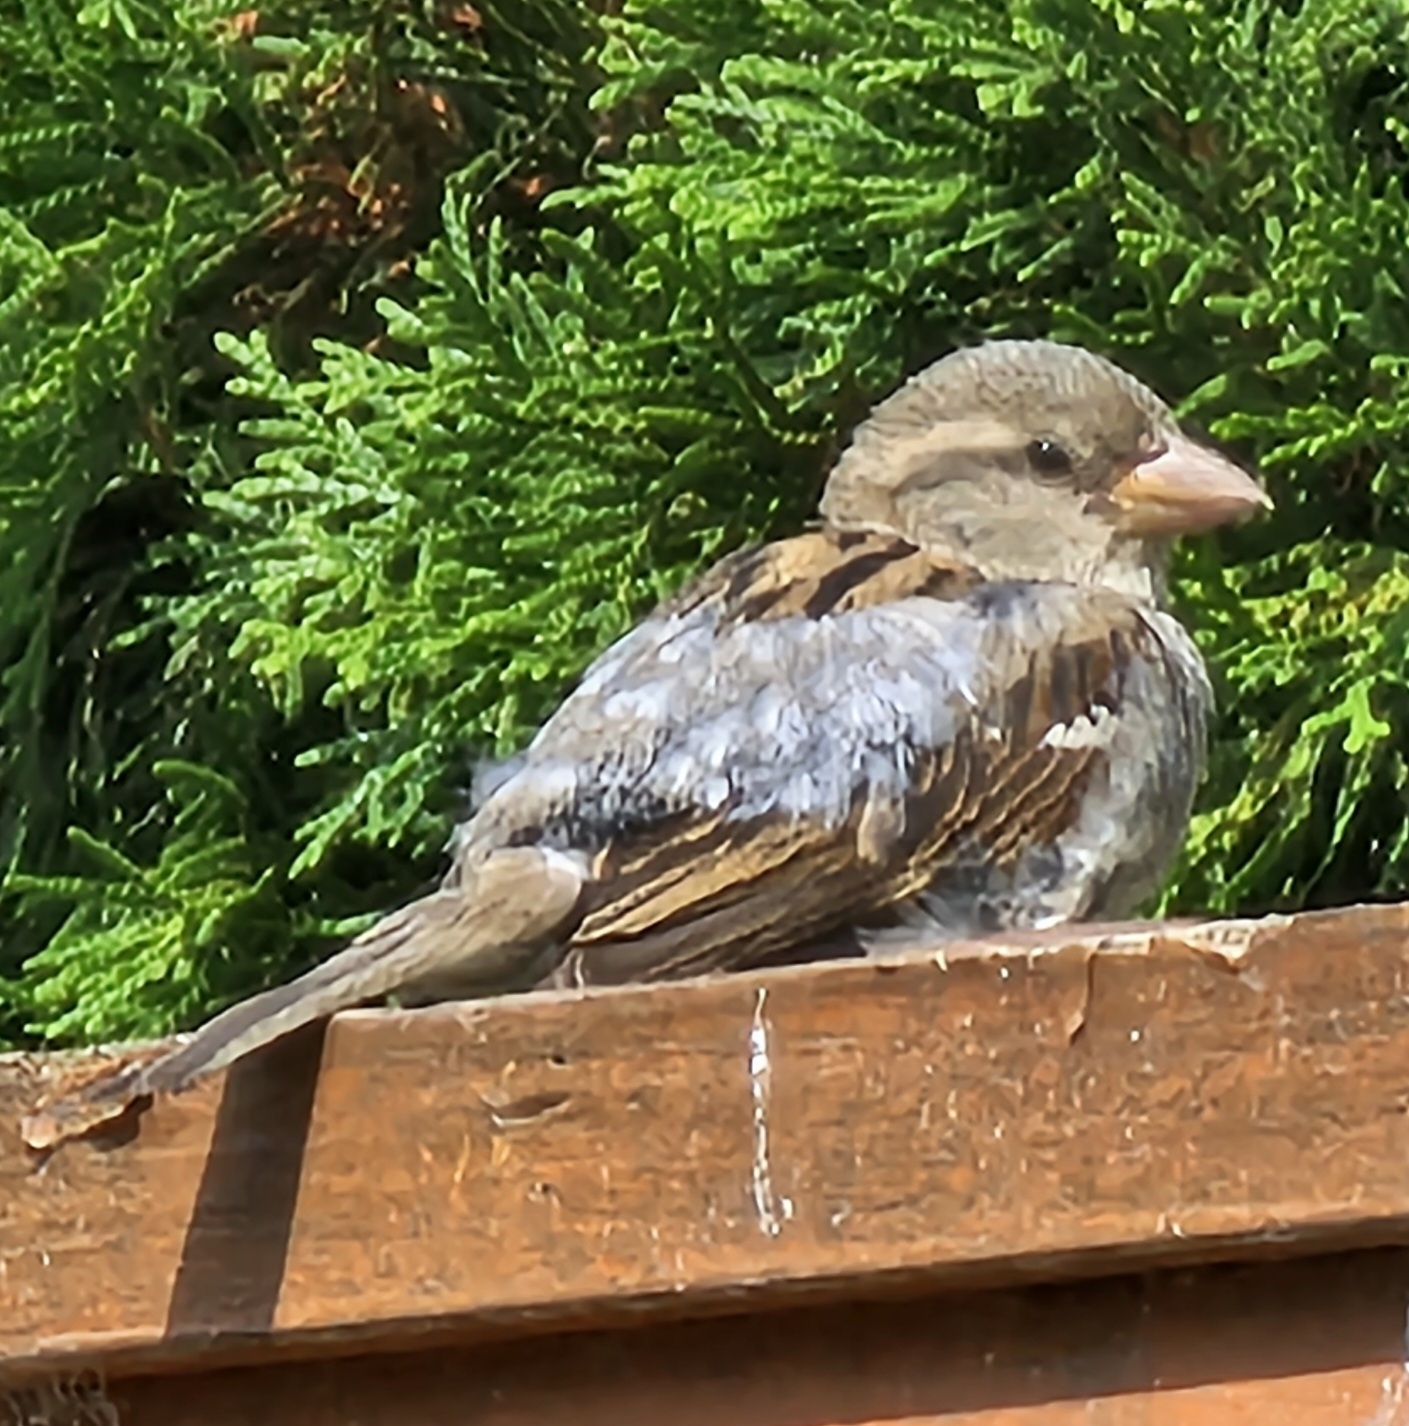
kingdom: Animalia
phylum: Chordata
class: Aves
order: Passeriformes
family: Passeridae
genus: Passer
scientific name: Passer domesticus
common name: House sparrow
